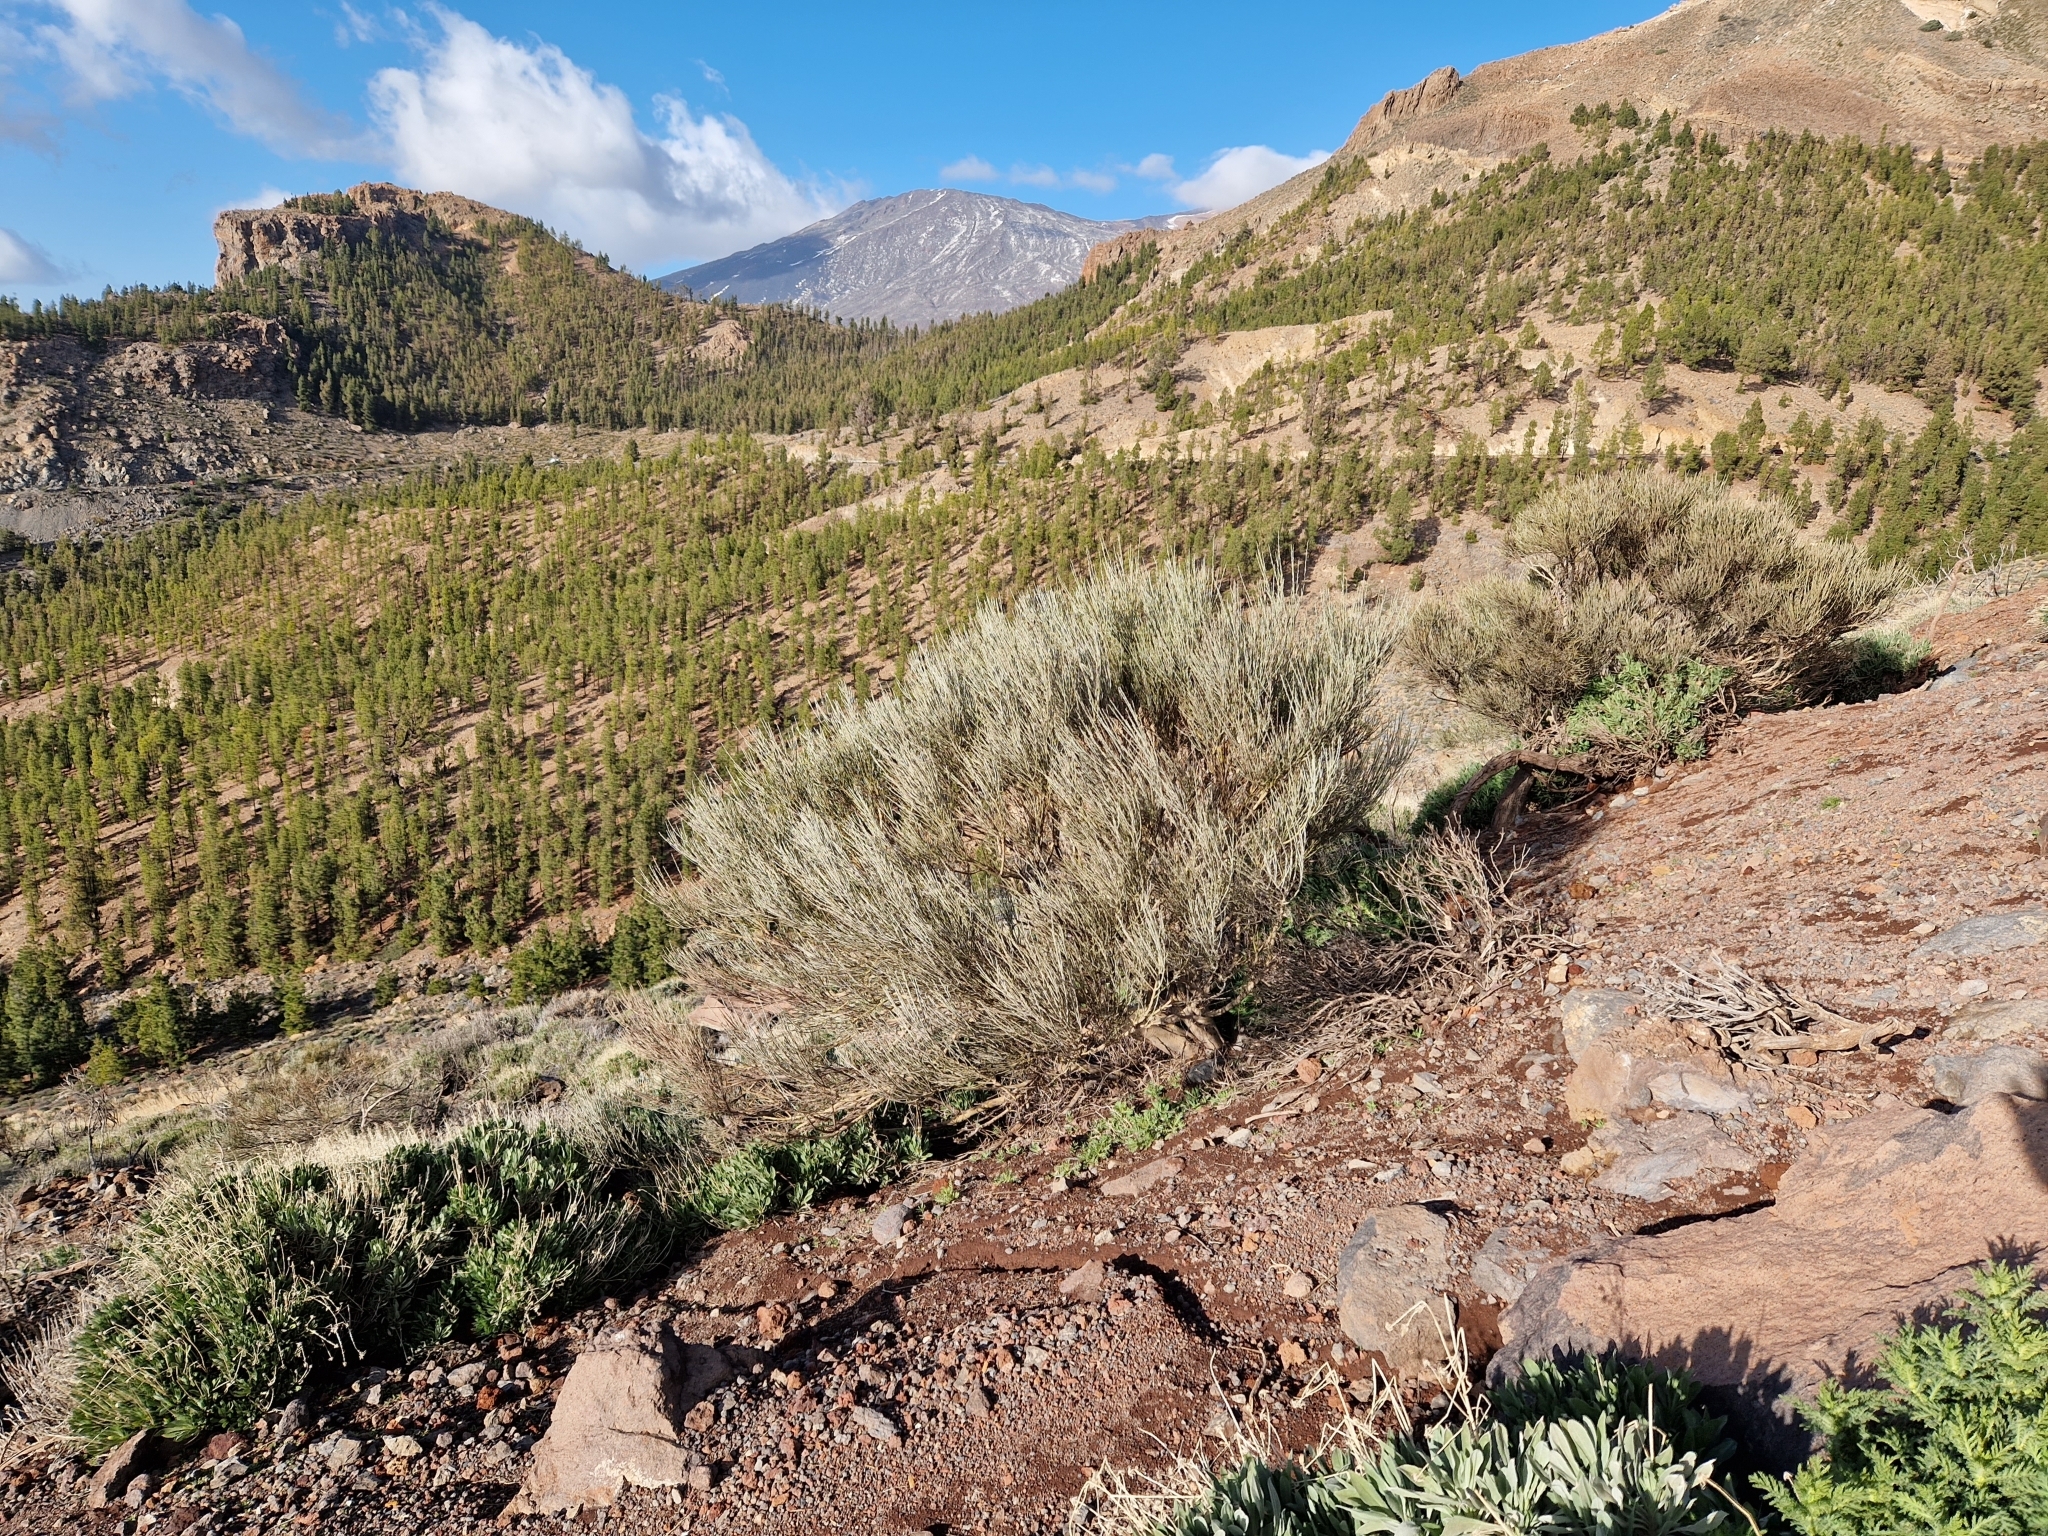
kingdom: Plantae
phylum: Tracheophyta
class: Magnoliopsida
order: Fabales
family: Fabaceae
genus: Cytisus
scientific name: Cytisus supranubius
